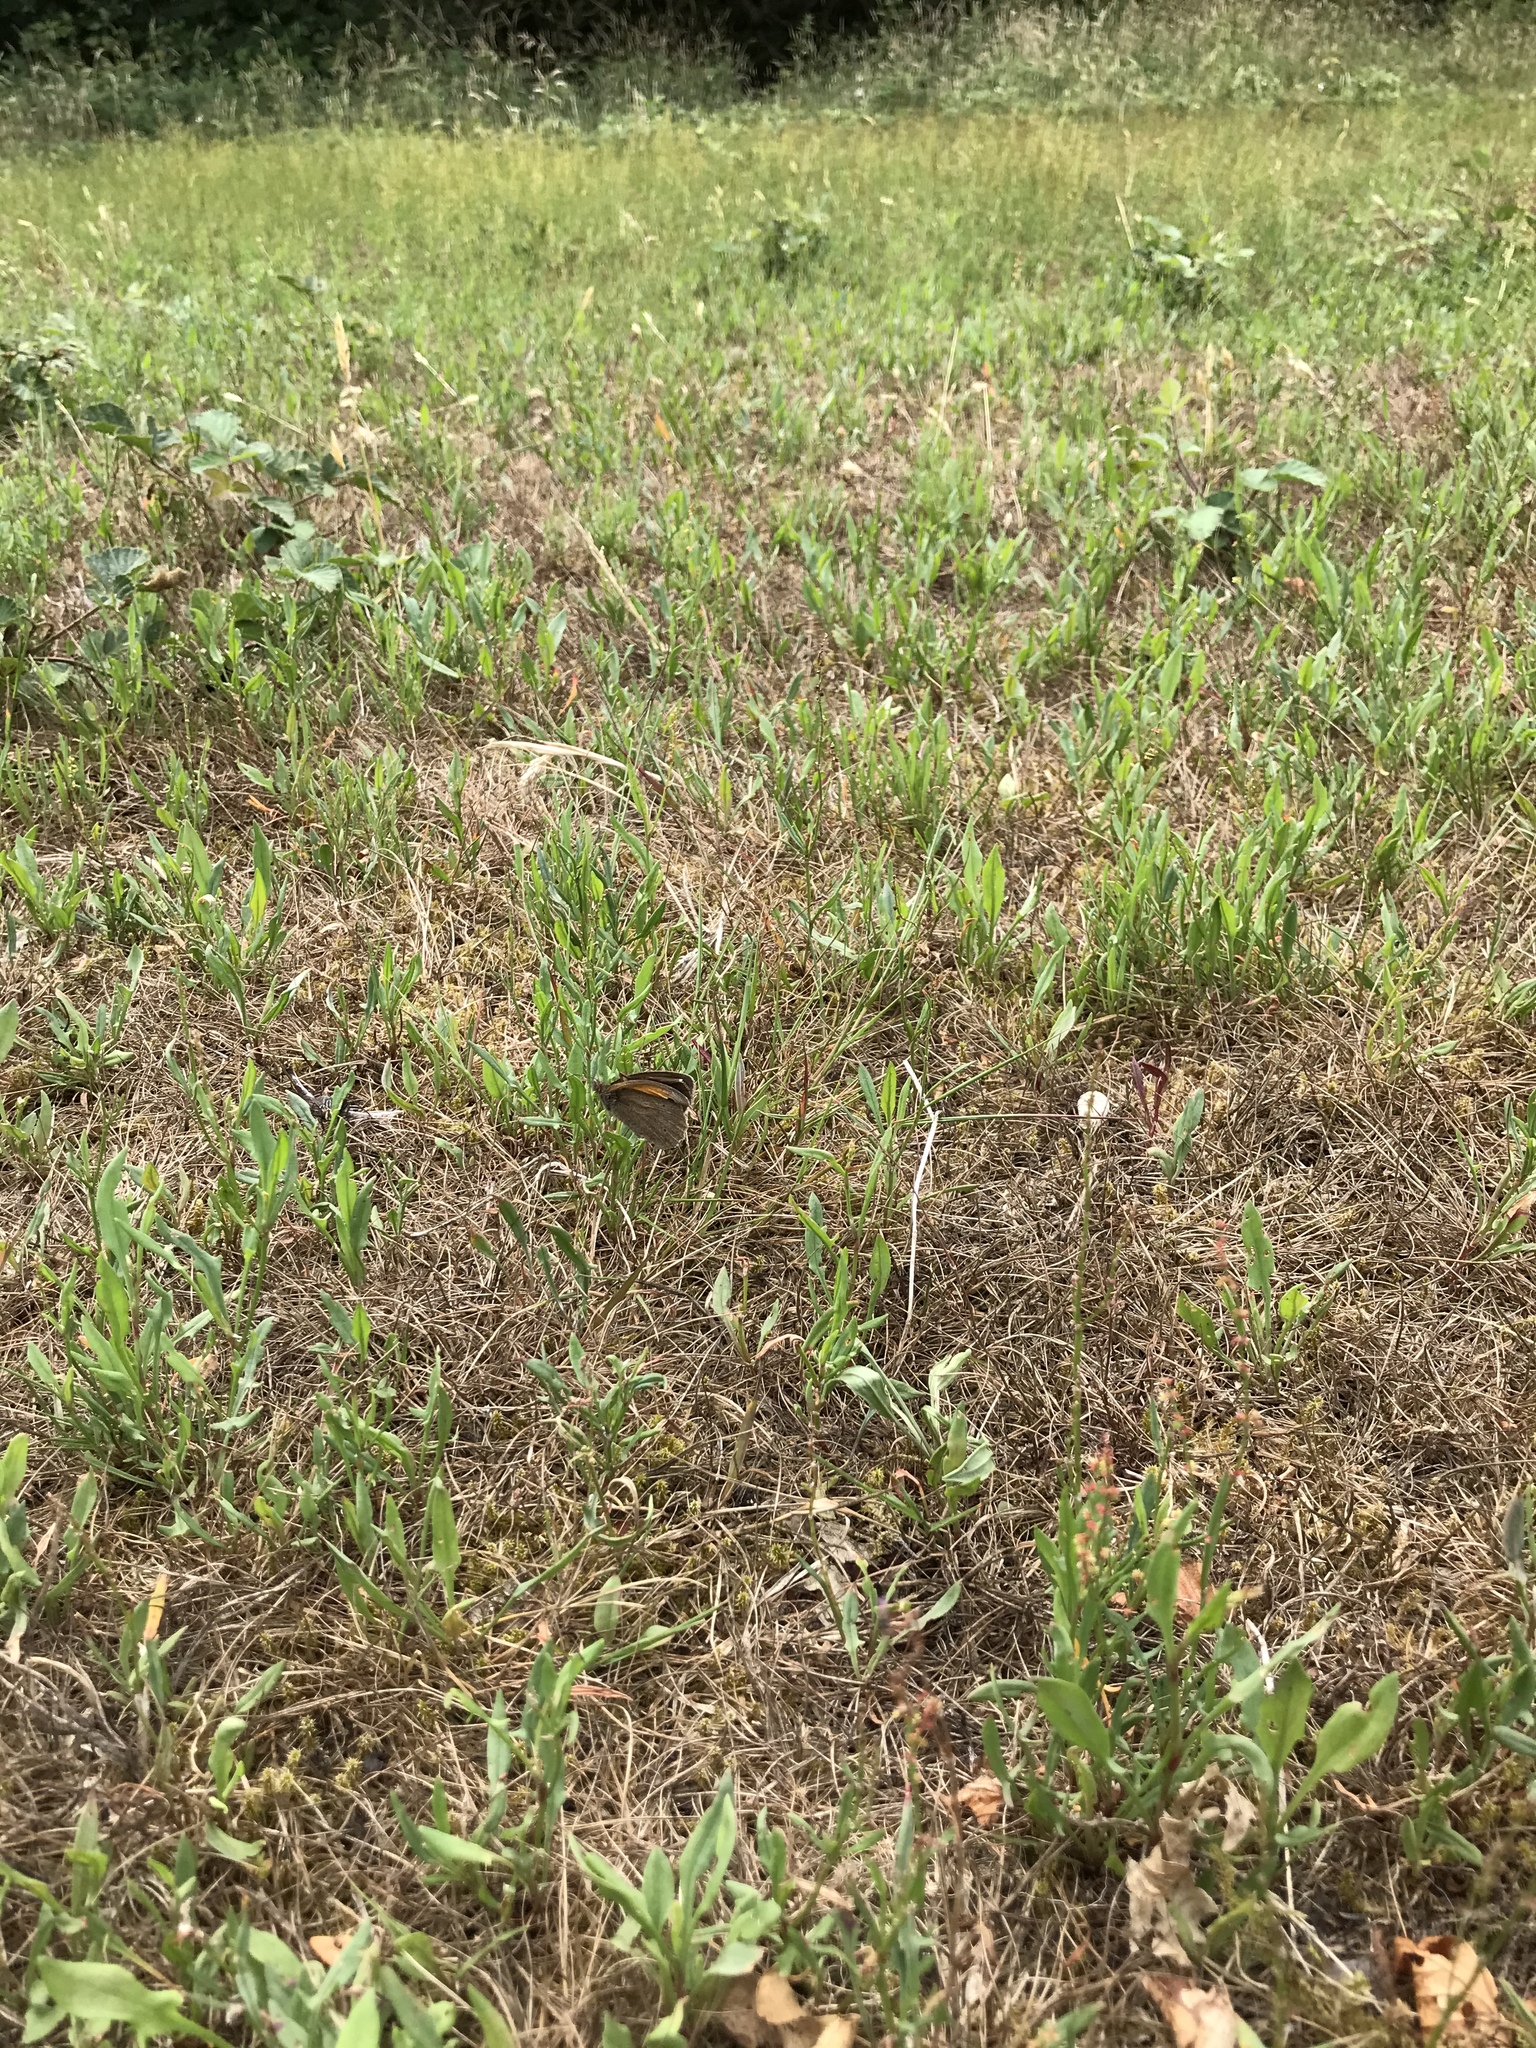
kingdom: Animalia
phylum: Arthropoda
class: Insecta
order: Lepidoptera
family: Nymphalidae
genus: Maniola
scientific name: Maniola jurtina
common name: Meadow brown
